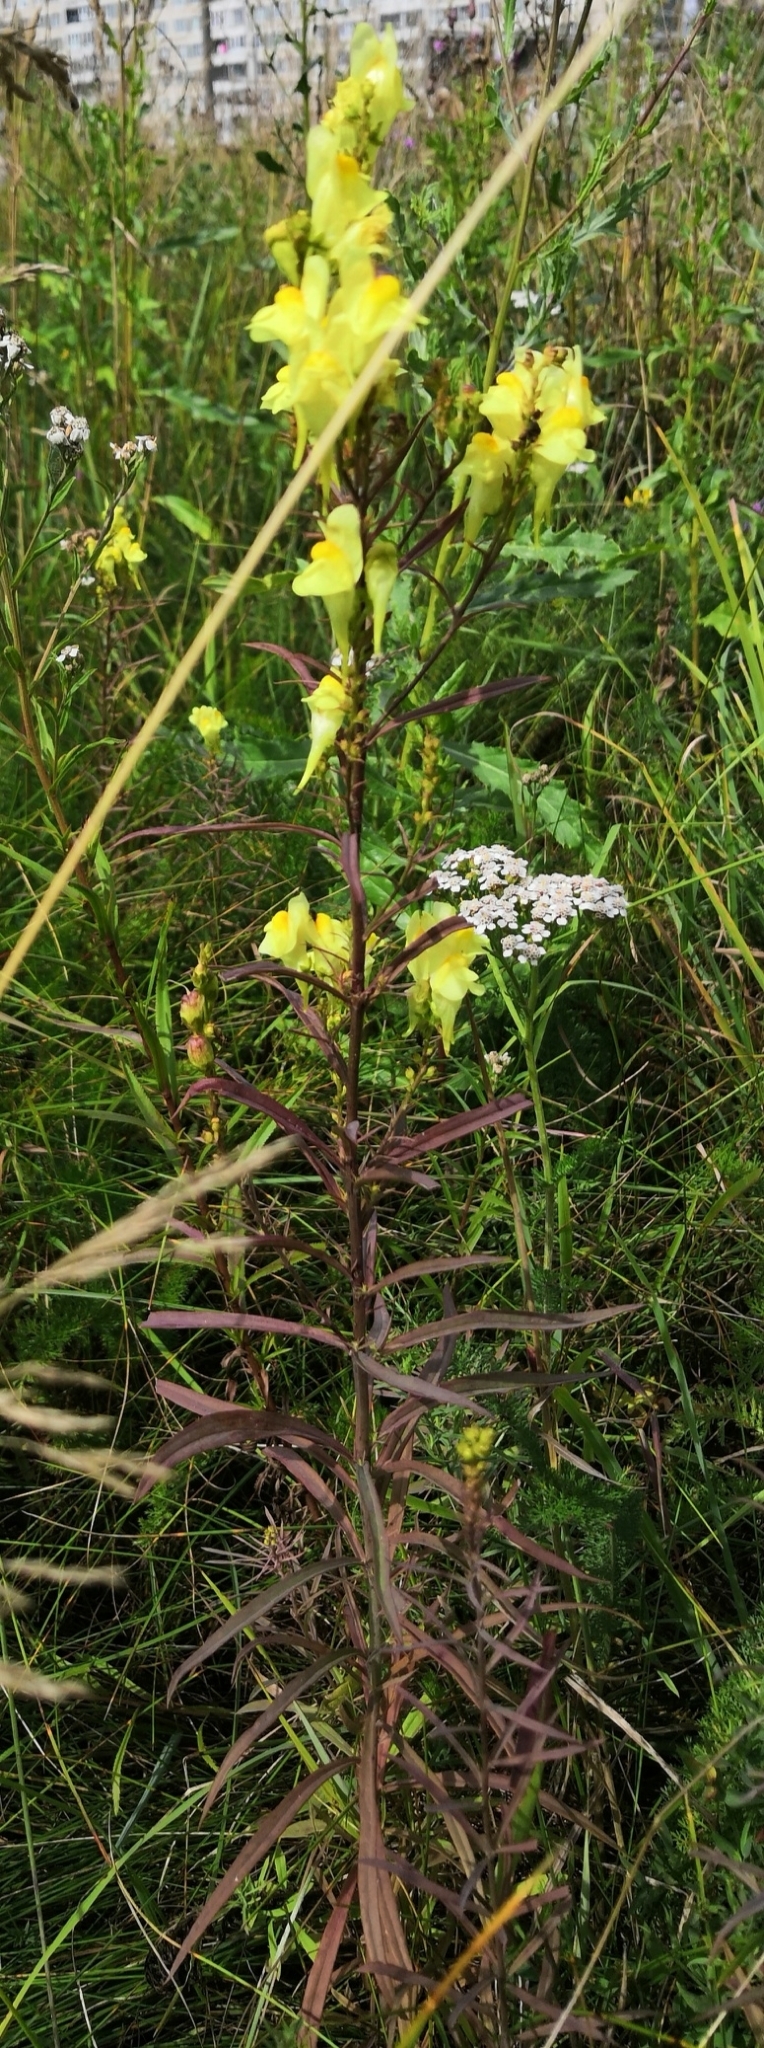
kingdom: Plantae
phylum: Tracheophyta
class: Magnoliopsida
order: Lamiales
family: Plantaginaceae
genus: Linaria
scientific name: Linaria vulgaris
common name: Butter and eggs
